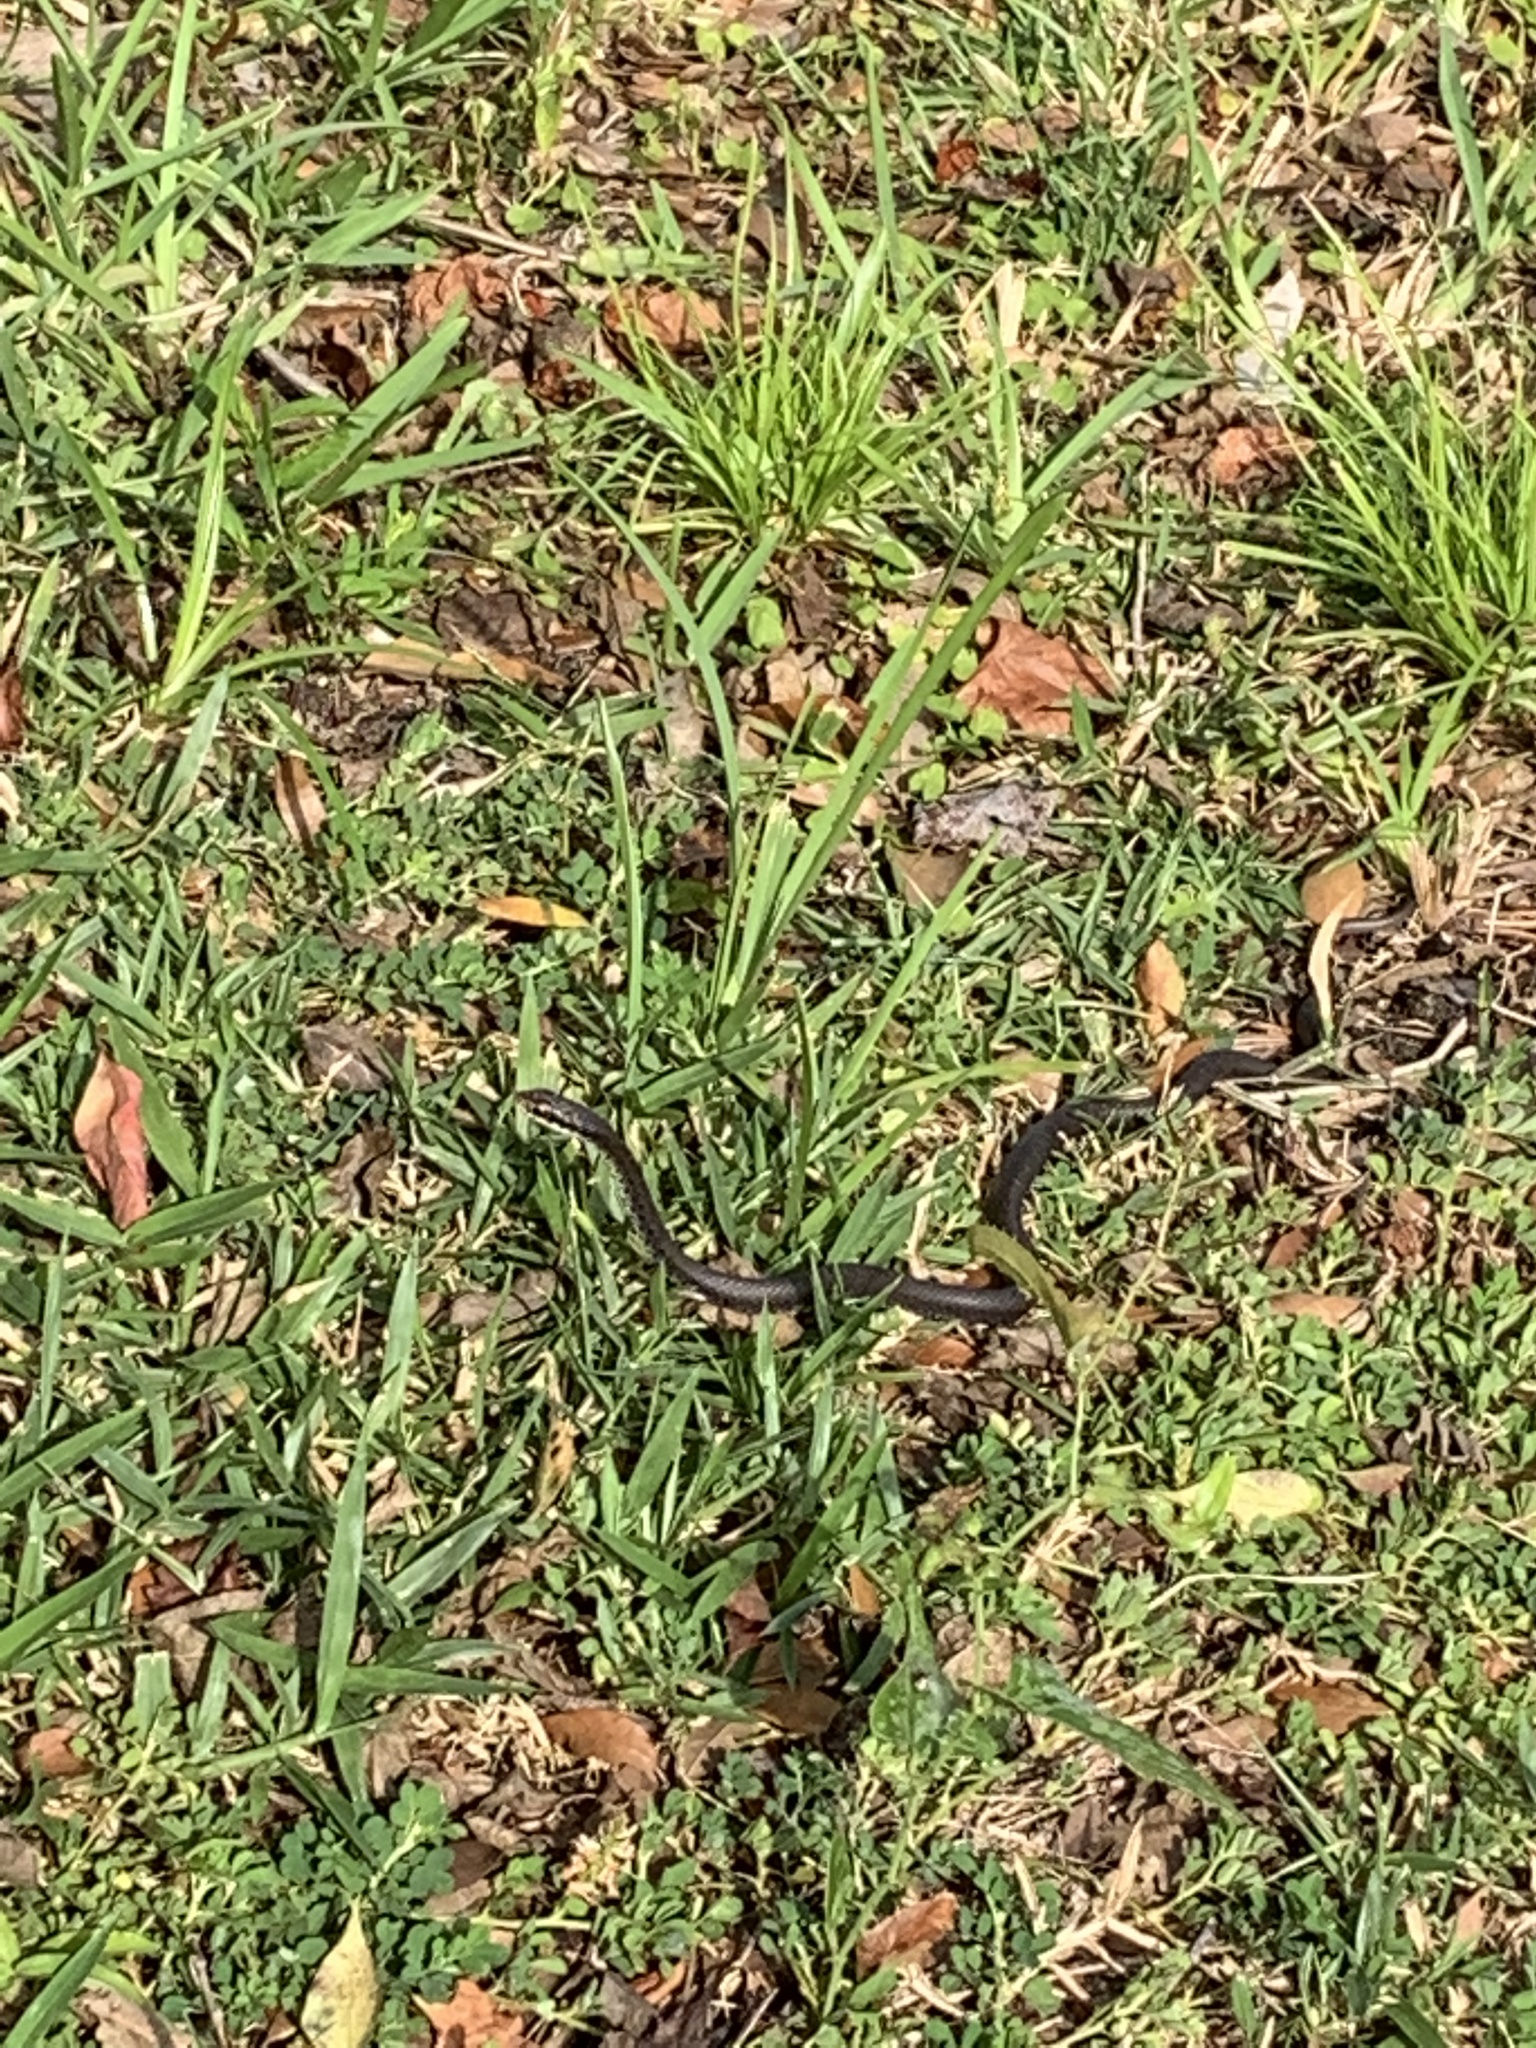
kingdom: Animalia
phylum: Chordata
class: Squamata
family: Colubridae
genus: Coluber
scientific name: Coluber constrictor
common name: Eastern racer
